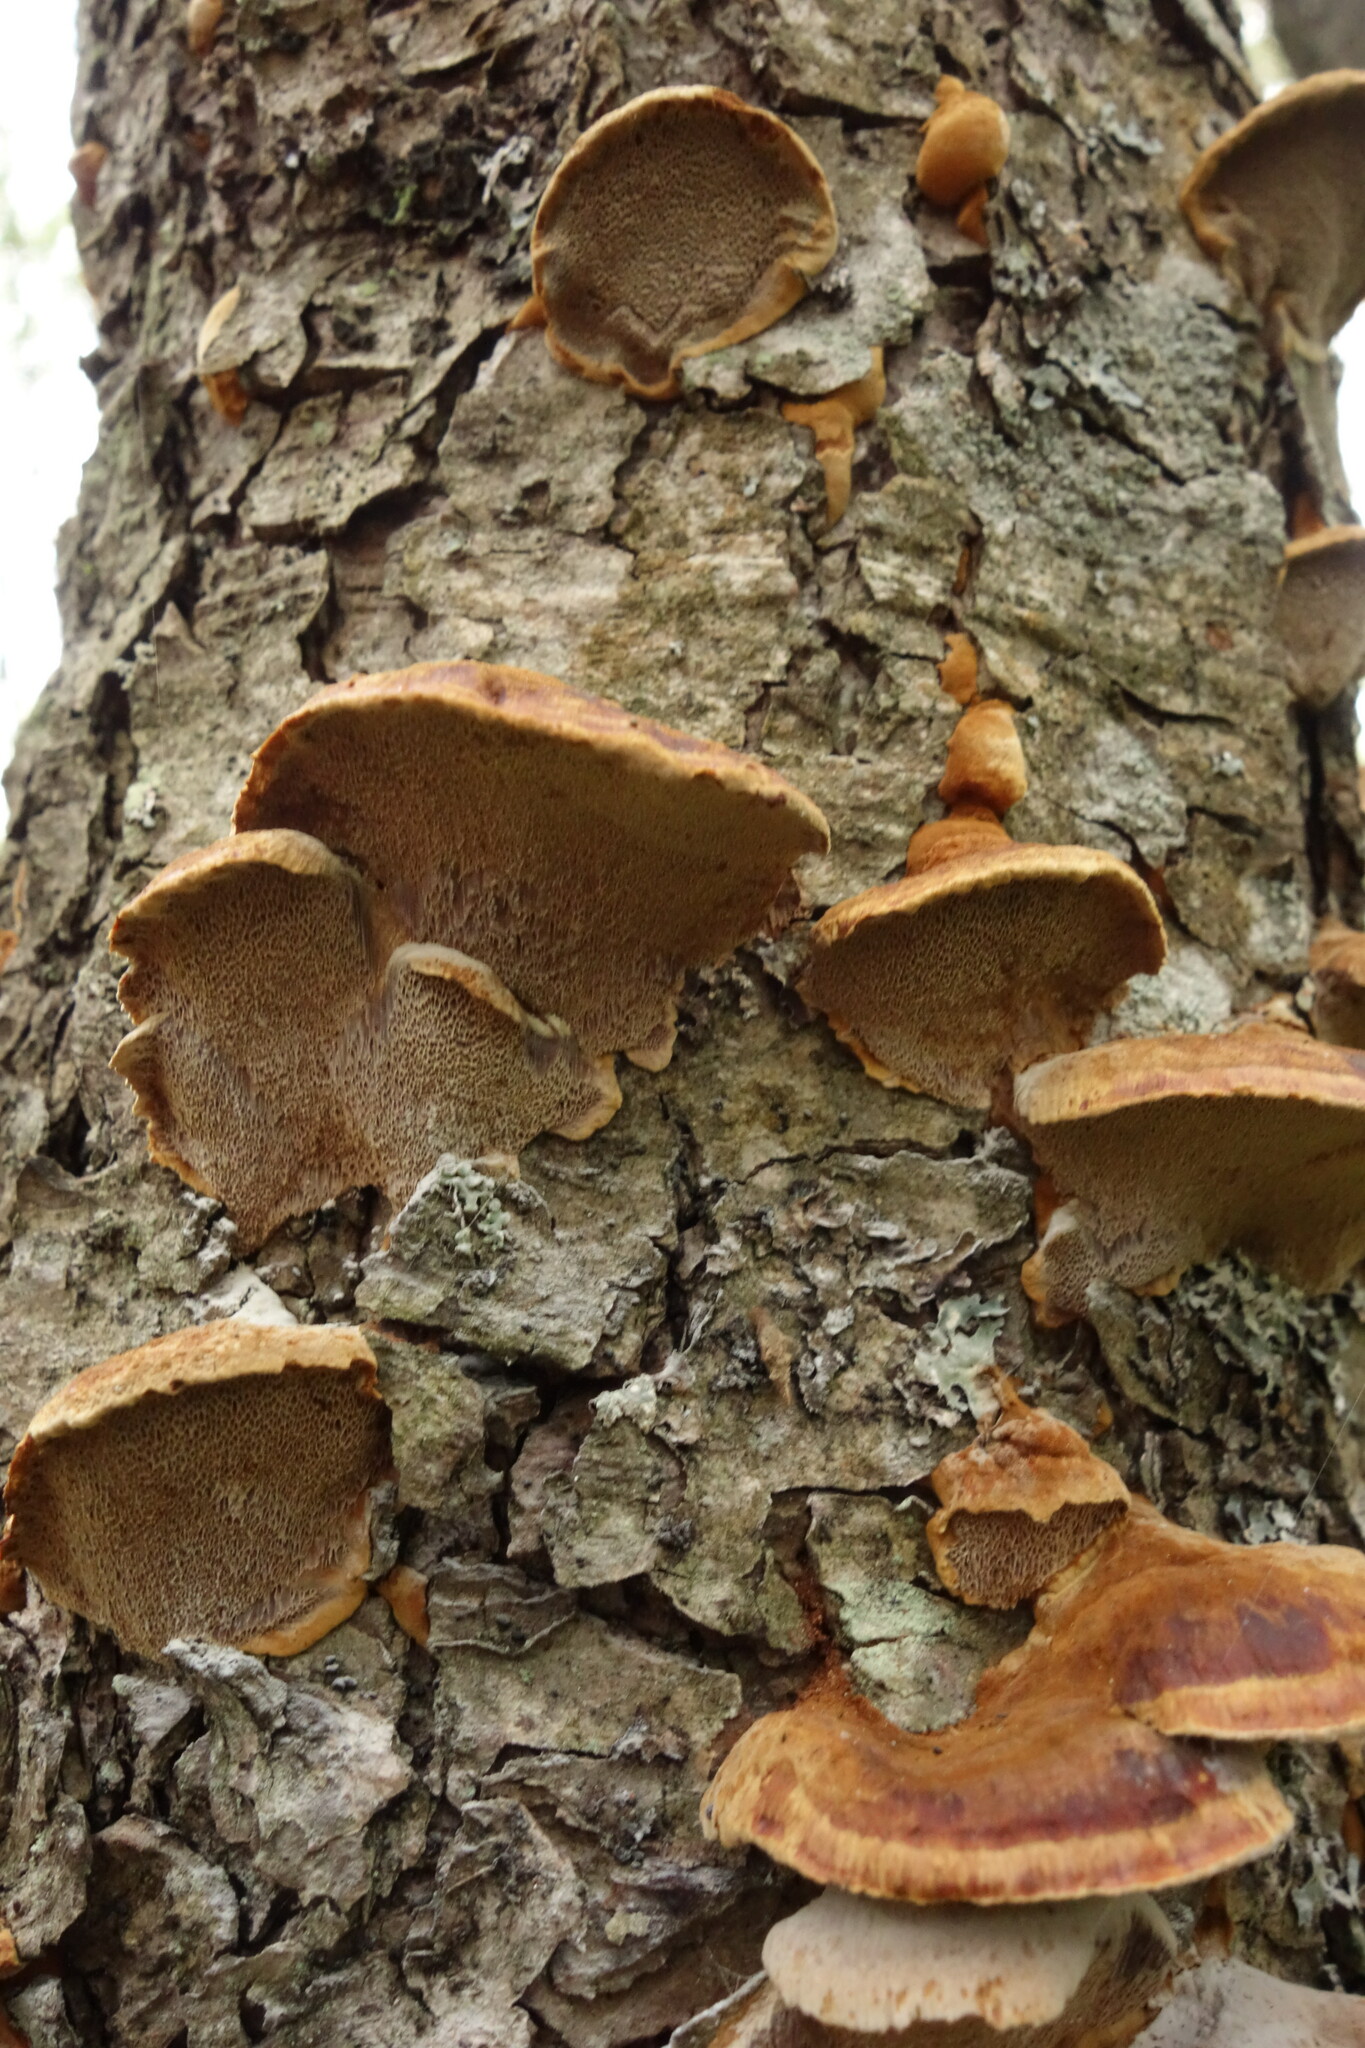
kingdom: Fungi
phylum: Basidiomycota
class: Agaricomycetes
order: Hymenochaetales
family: Hymenochaetaceae
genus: Xanthoporia
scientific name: Xanthoporia radiata
